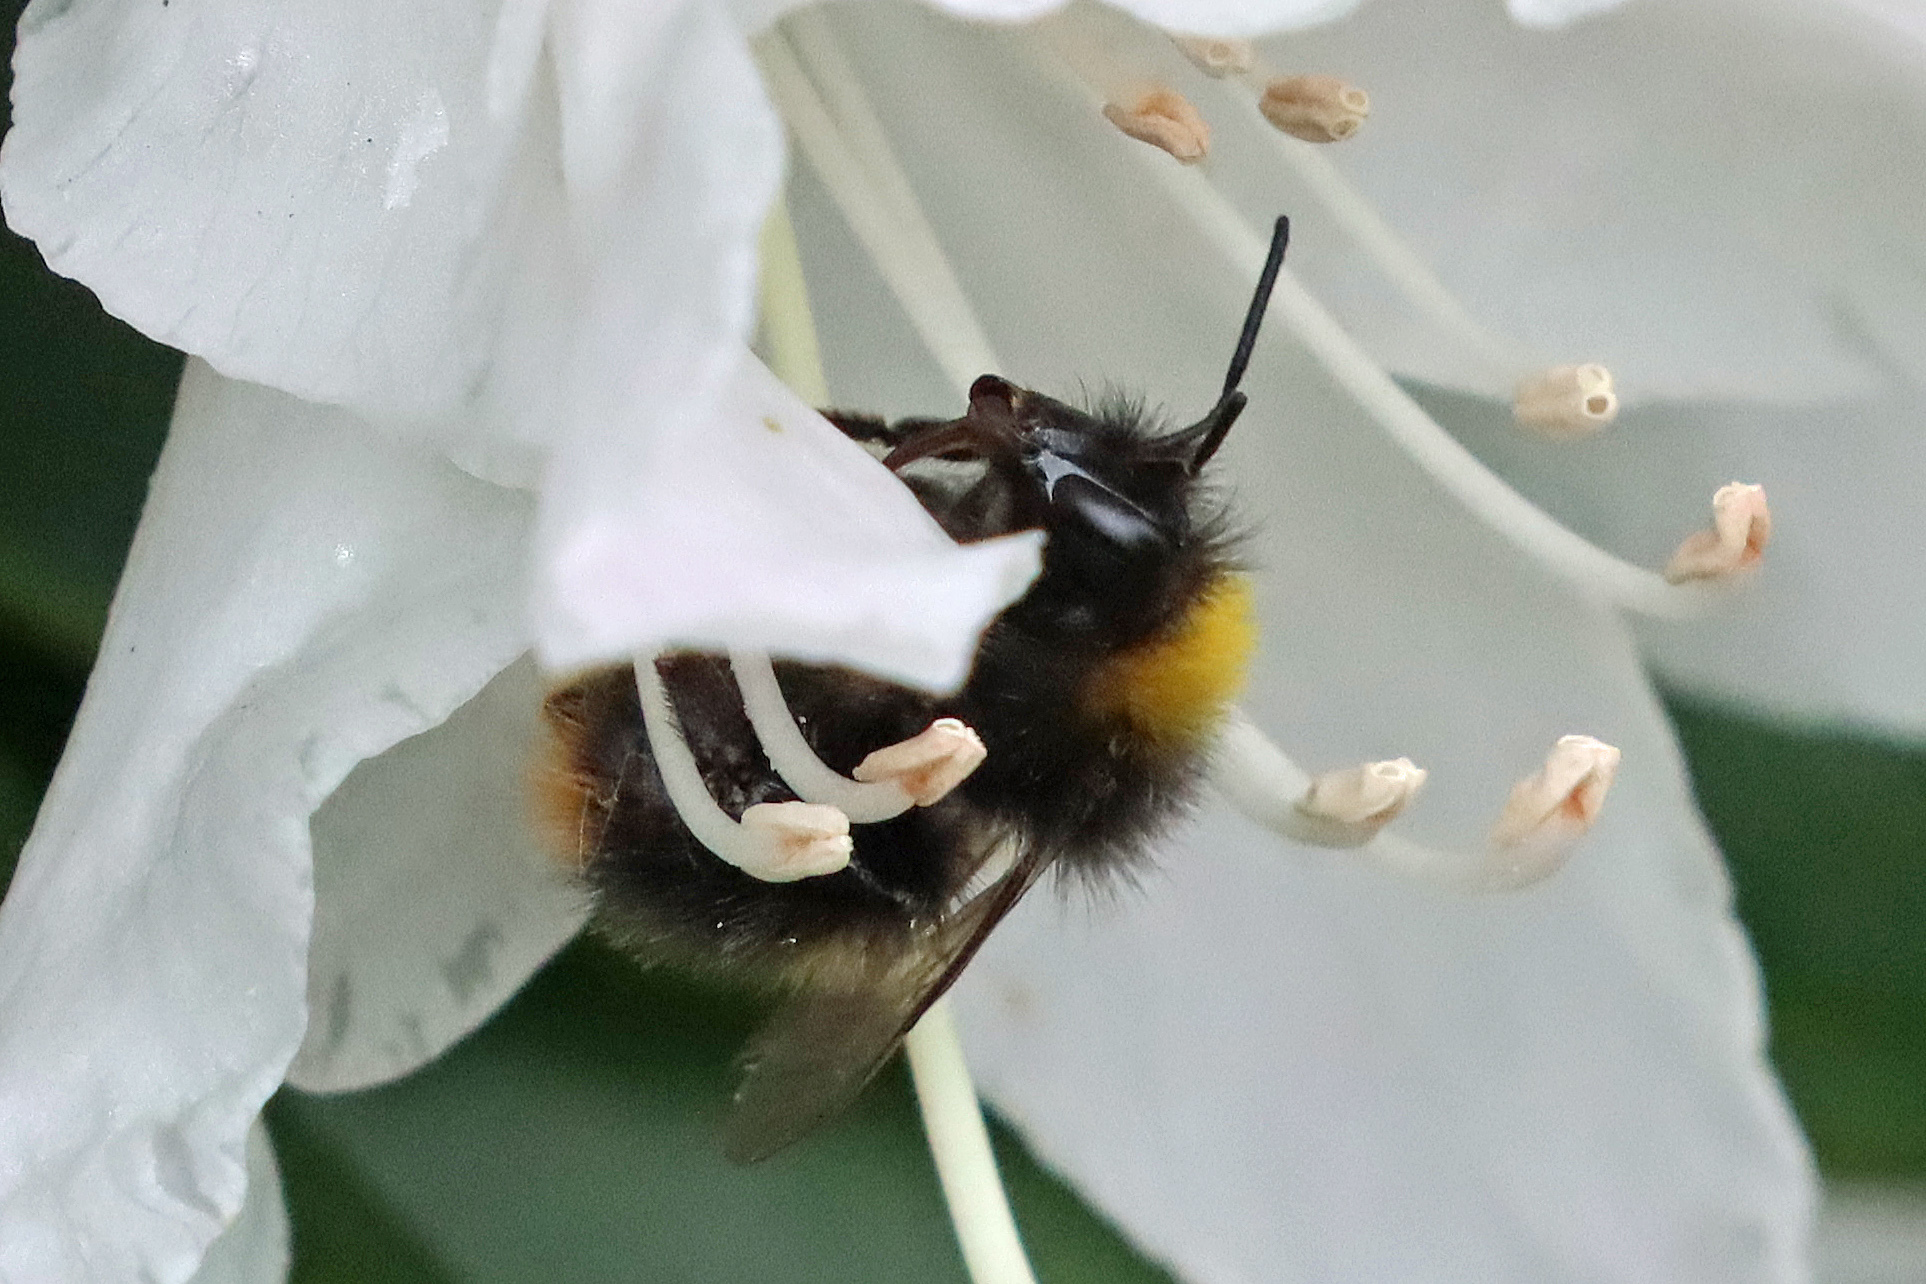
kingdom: Animalia
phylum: Arthropoda
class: Insecta
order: Hymenoptera
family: Apidae
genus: Bombus
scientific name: Bombus pratorum
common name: Early humble-bee
